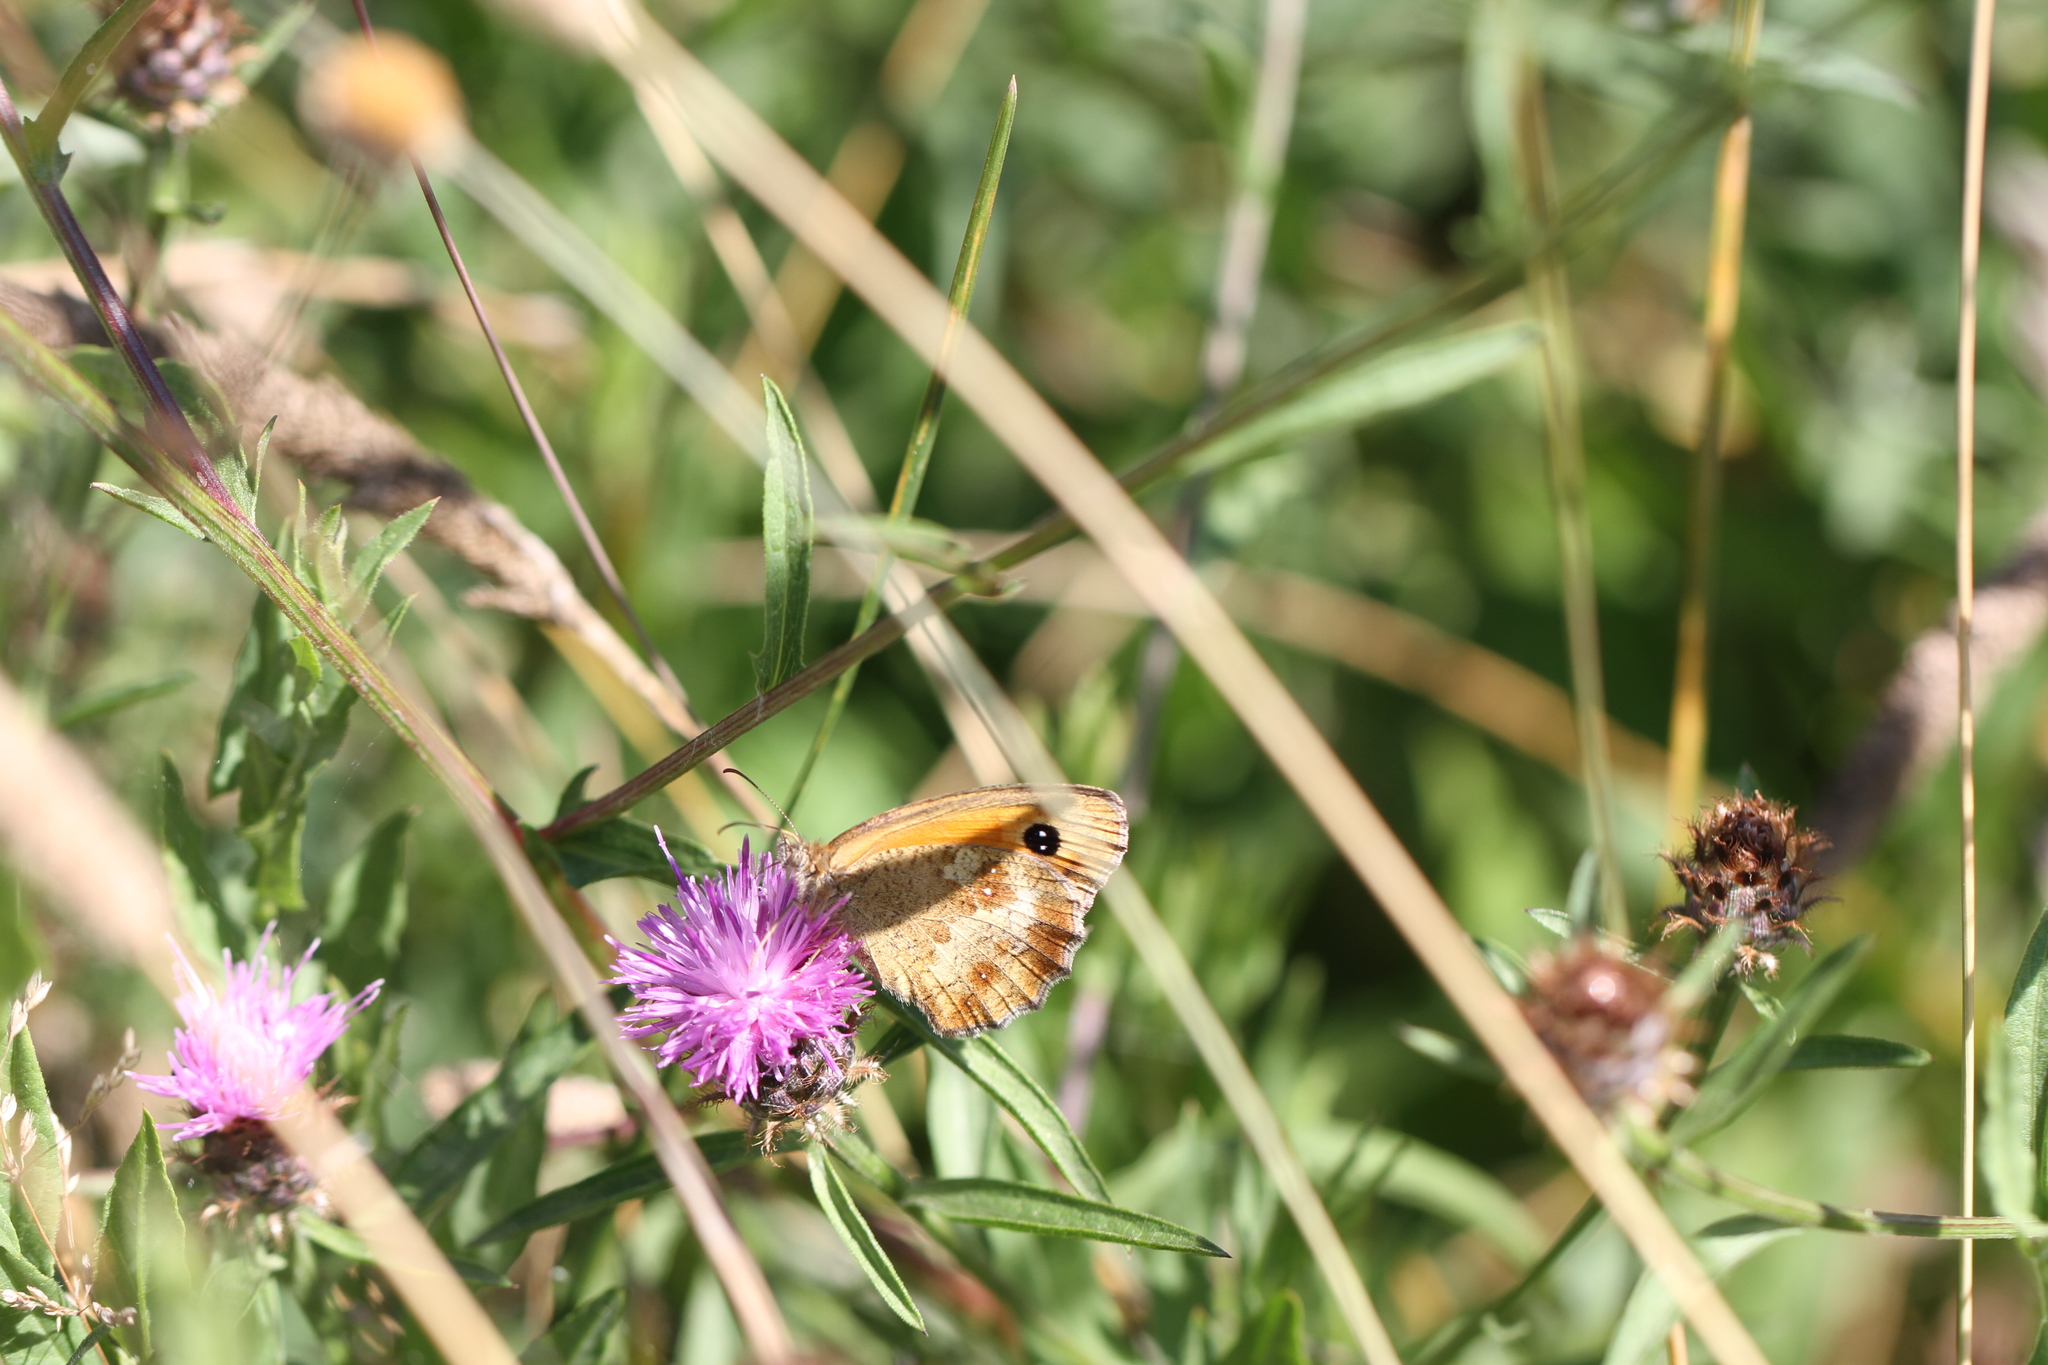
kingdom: Animalia
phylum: Arthropoda
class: Insecta
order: Lepidoptera
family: Nymphalidae
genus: Pyronia
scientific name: Pyronia tithonus
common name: Gatekeeper
